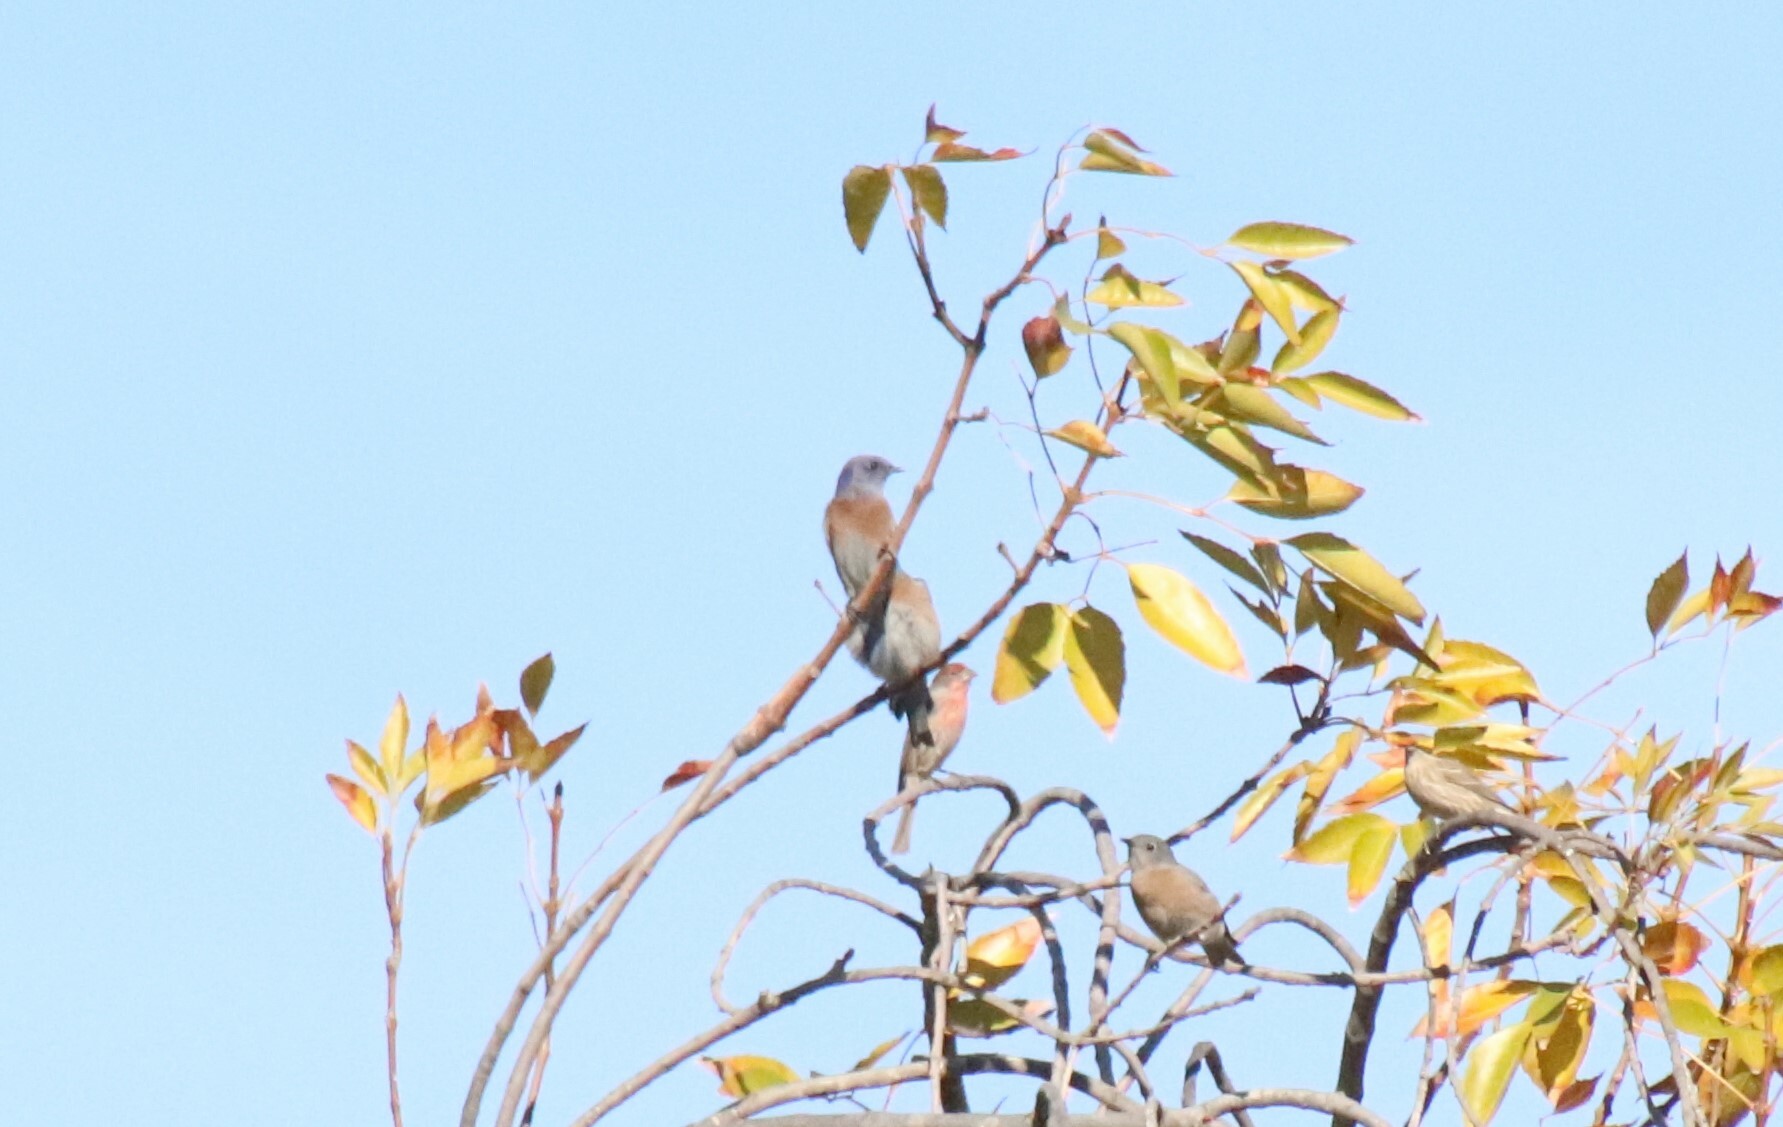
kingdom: Animalia
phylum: Chordata
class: Aves
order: Passeriformes
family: Turdidae
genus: Sialia
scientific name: Sialia mexicana
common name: Western bluebird
